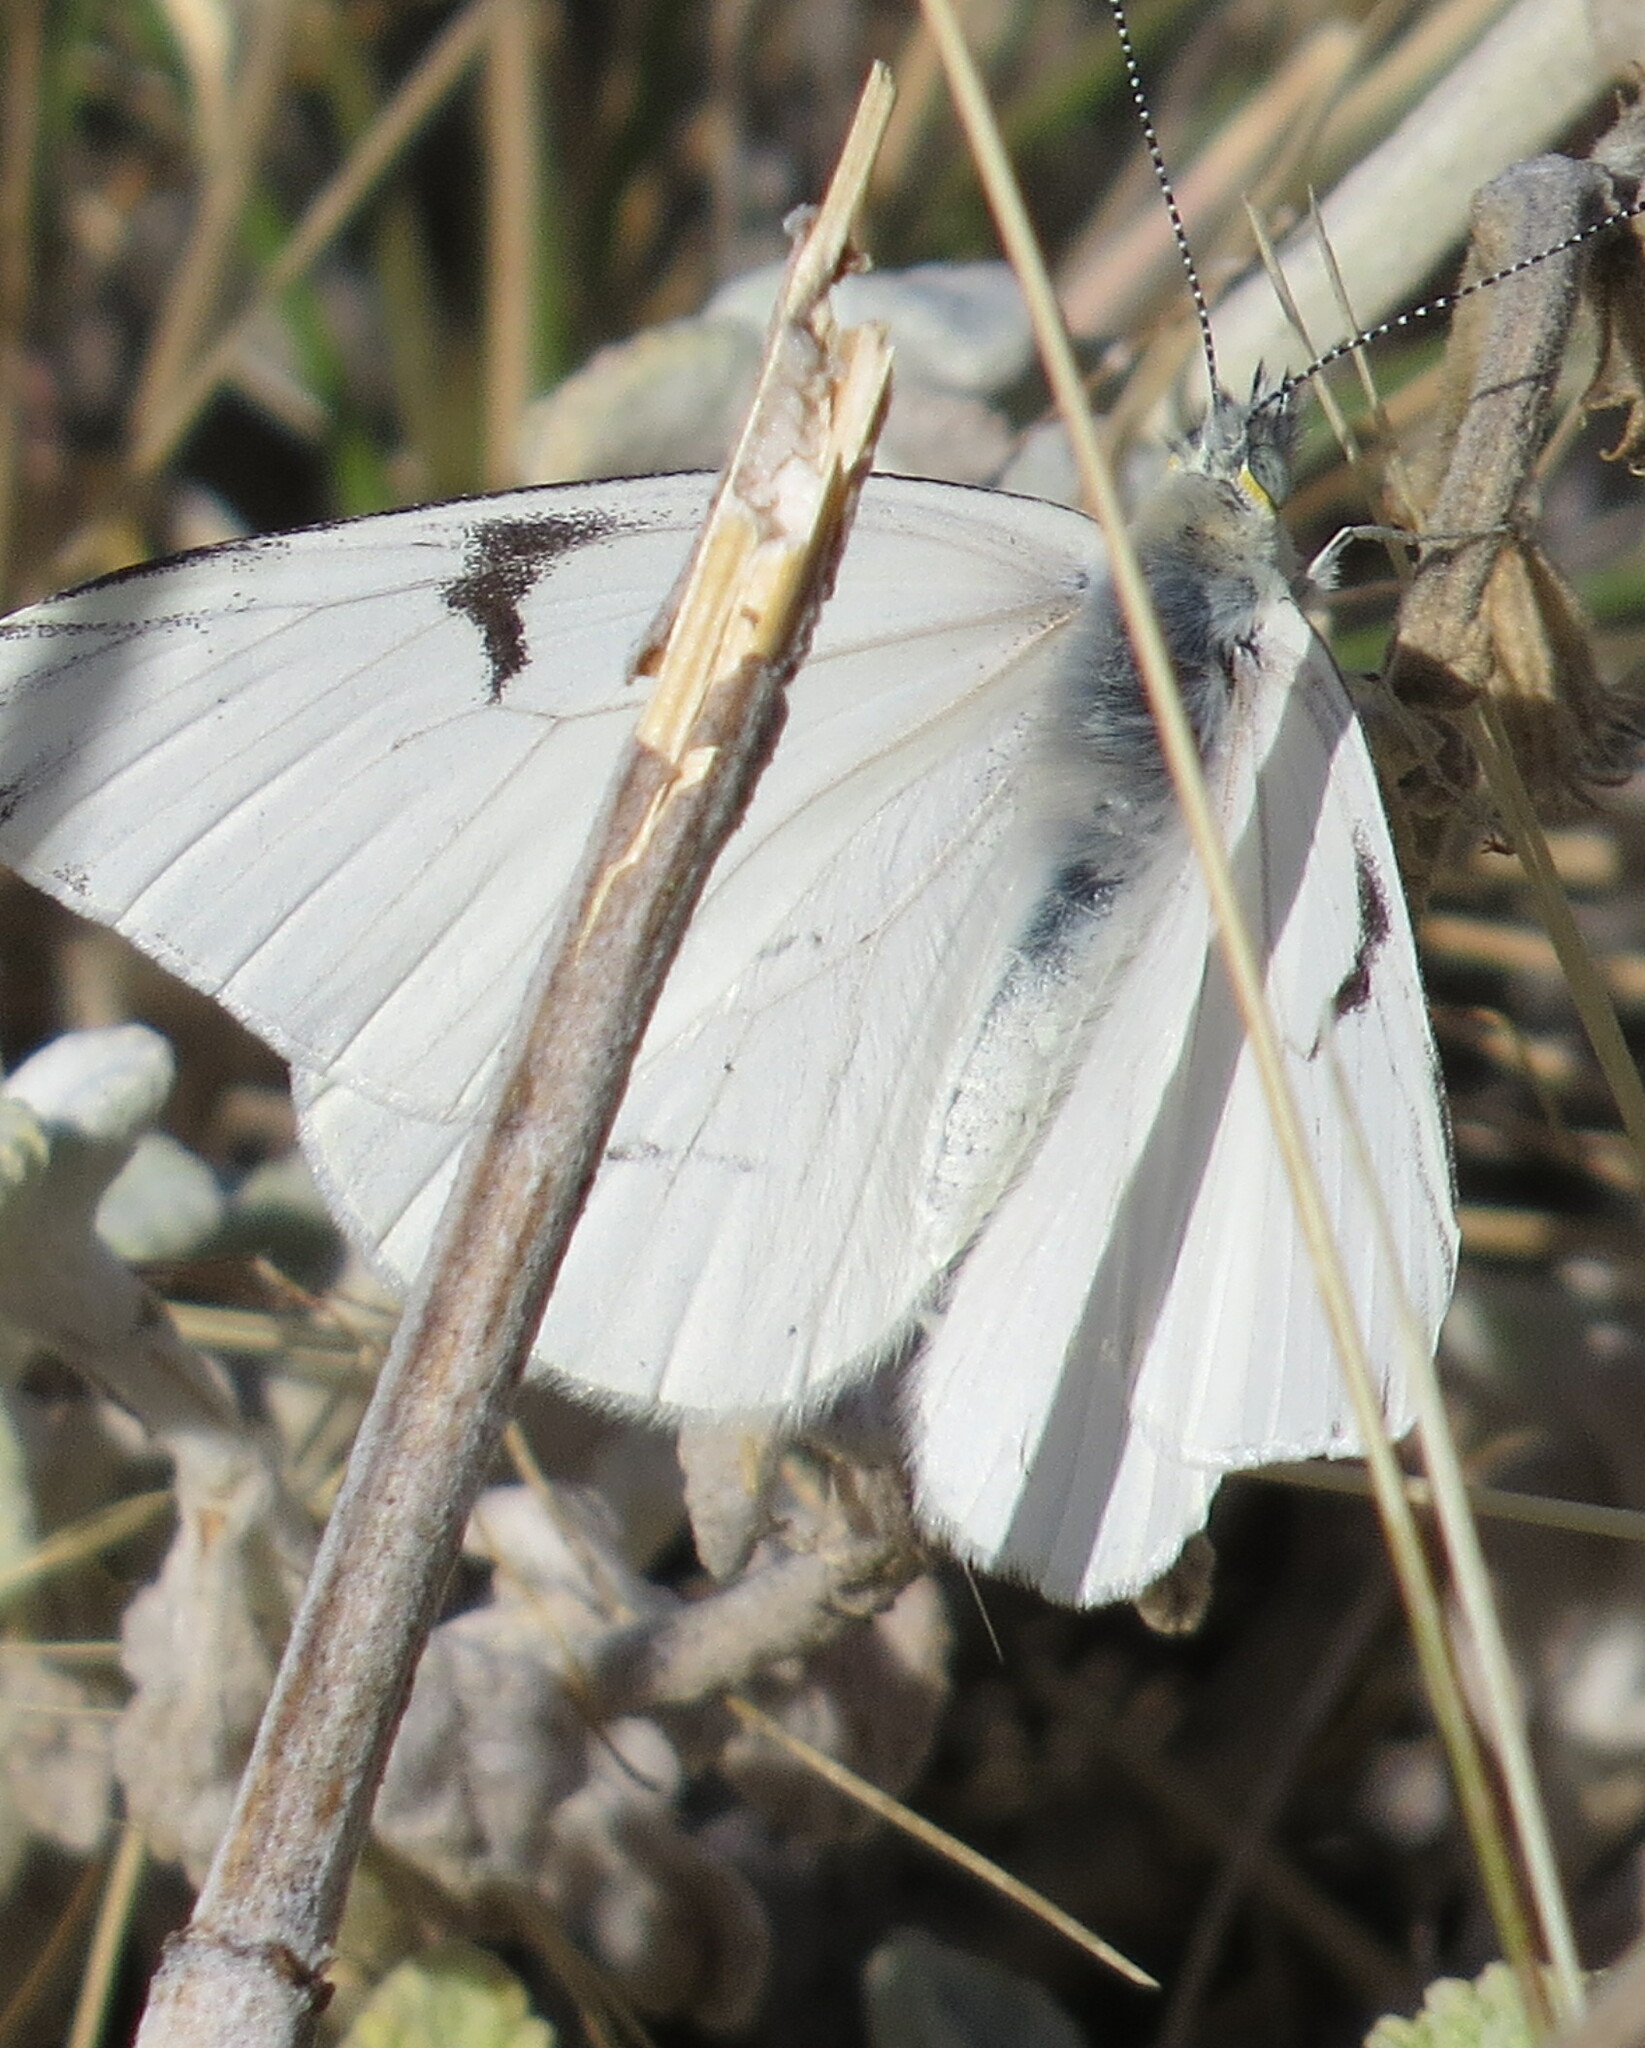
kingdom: Animalia
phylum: Arthropoda
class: Insecta
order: Lepidoptera
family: Pieridae
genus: Tatochila
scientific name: Tatochila mercedis
